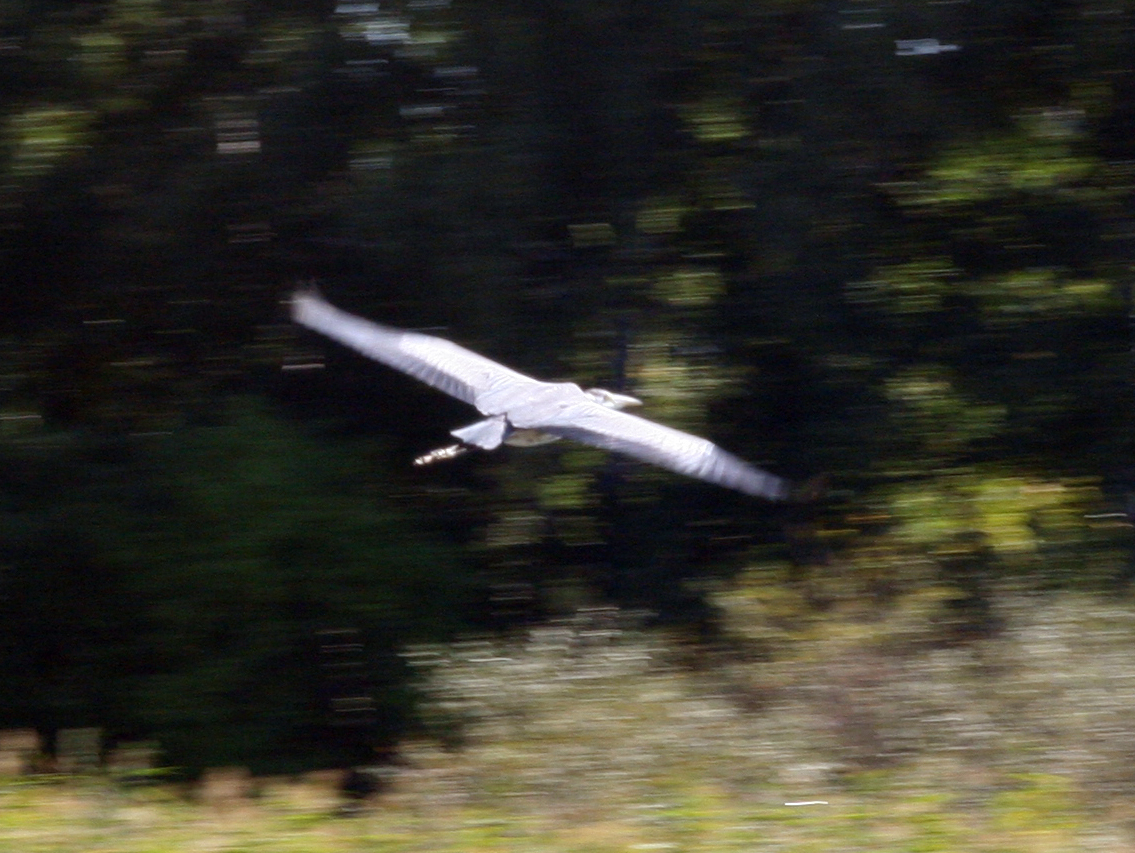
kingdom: Animalia
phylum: Chordata
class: Aves
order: Pelecaniformes
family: Ardeidae
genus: Ardea
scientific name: Ardea cinerea
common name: Grey heron
